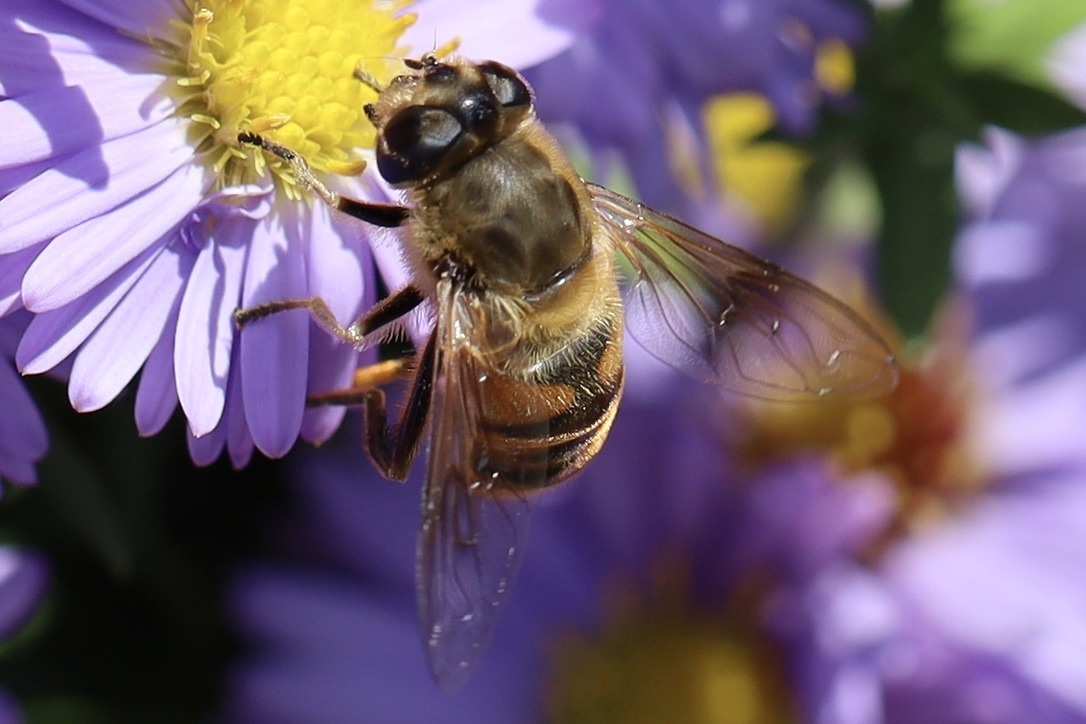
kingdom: Animalia
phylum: Arthropoda
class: Insecta
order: Diptera
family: Syrphidae
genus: Eristalis
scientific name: Eristalis tenax
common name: Drone fly
